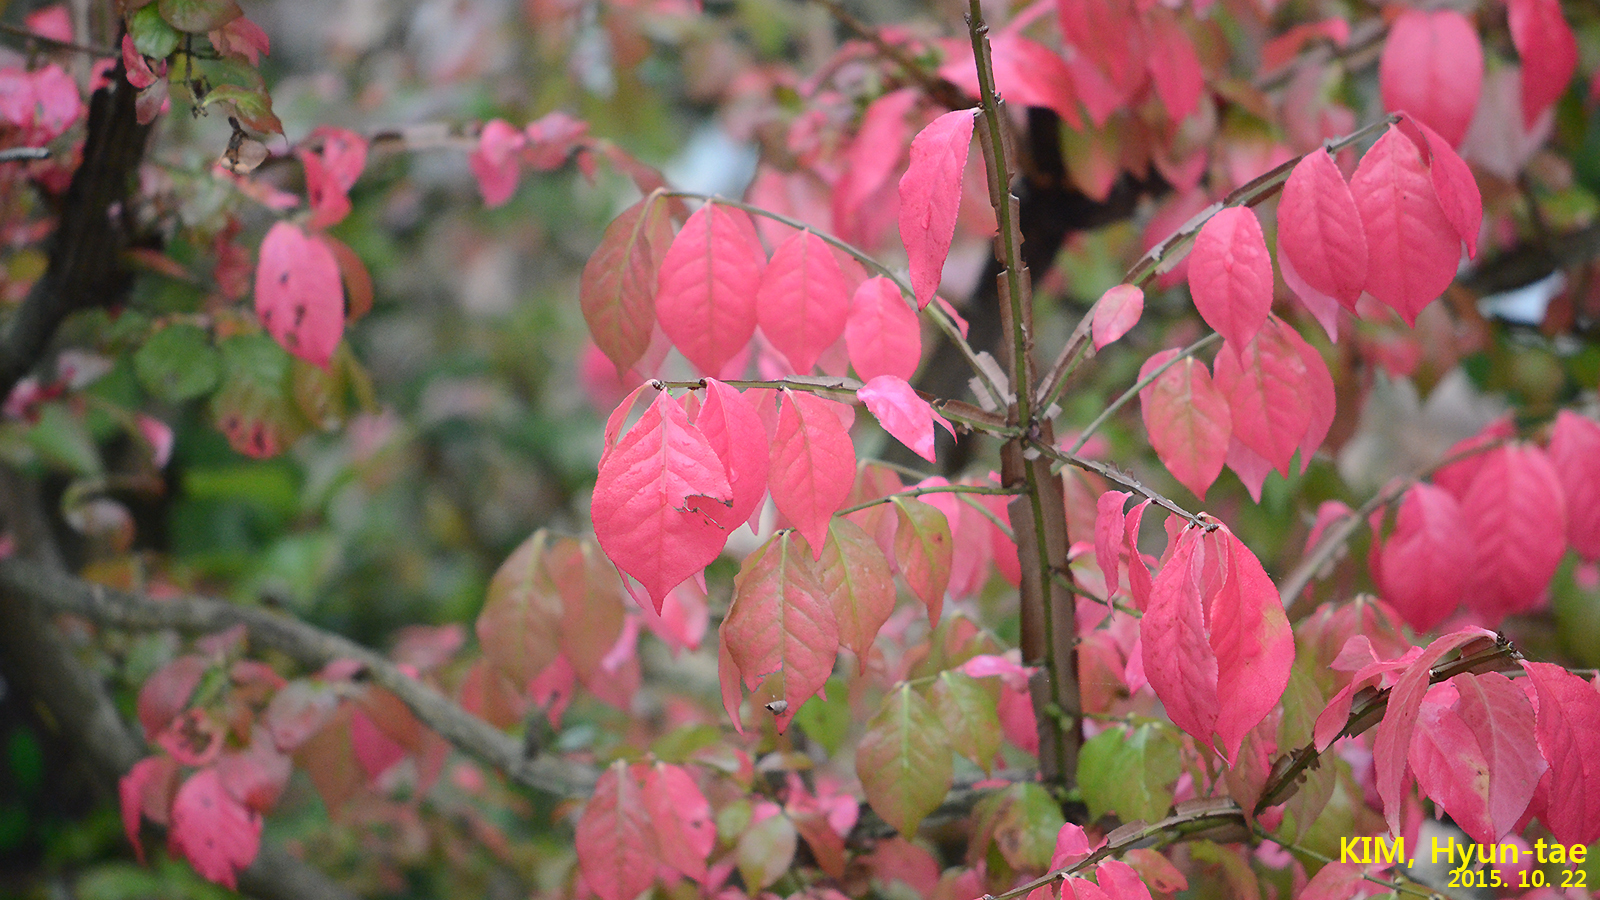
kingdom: Plantae
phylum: Tracheophyta
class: Magnoliopsida
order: Celastrales
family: Celastraceae
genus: Euonymus
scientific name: Euonymus alatus
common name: Winged euonymus
